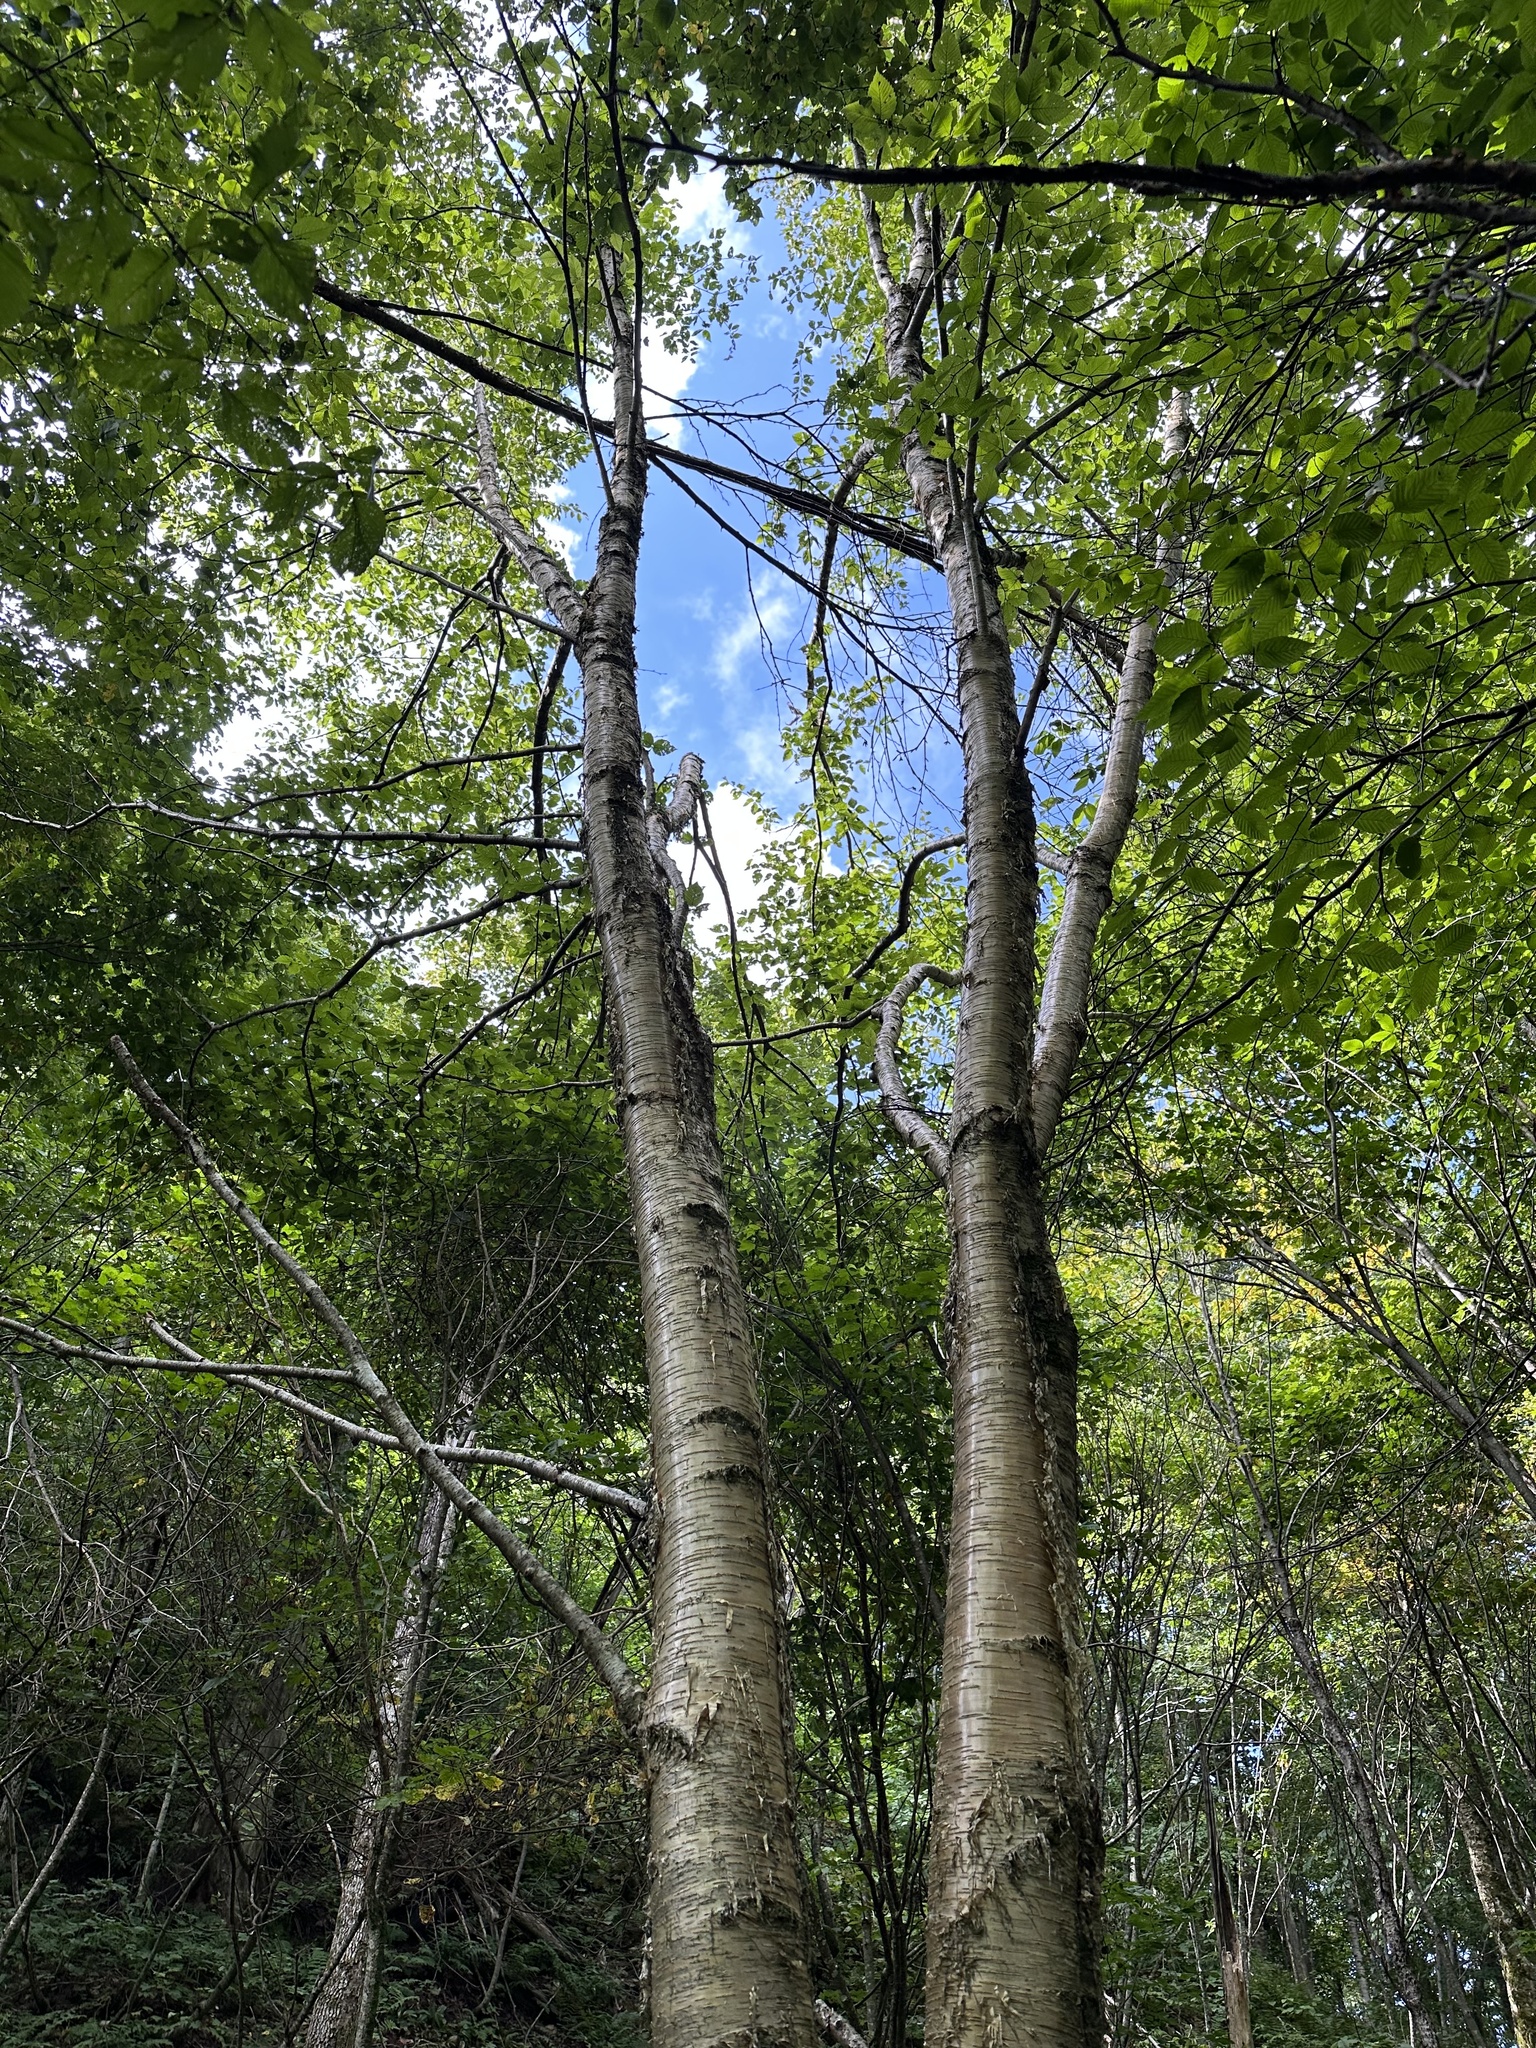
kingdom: Plantae
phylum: Tracheophyta
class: Magnoliopsida
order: Fagales
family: Betulaceae
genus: Betula
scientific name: Betula alleghaniensis
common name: Yellow birch
